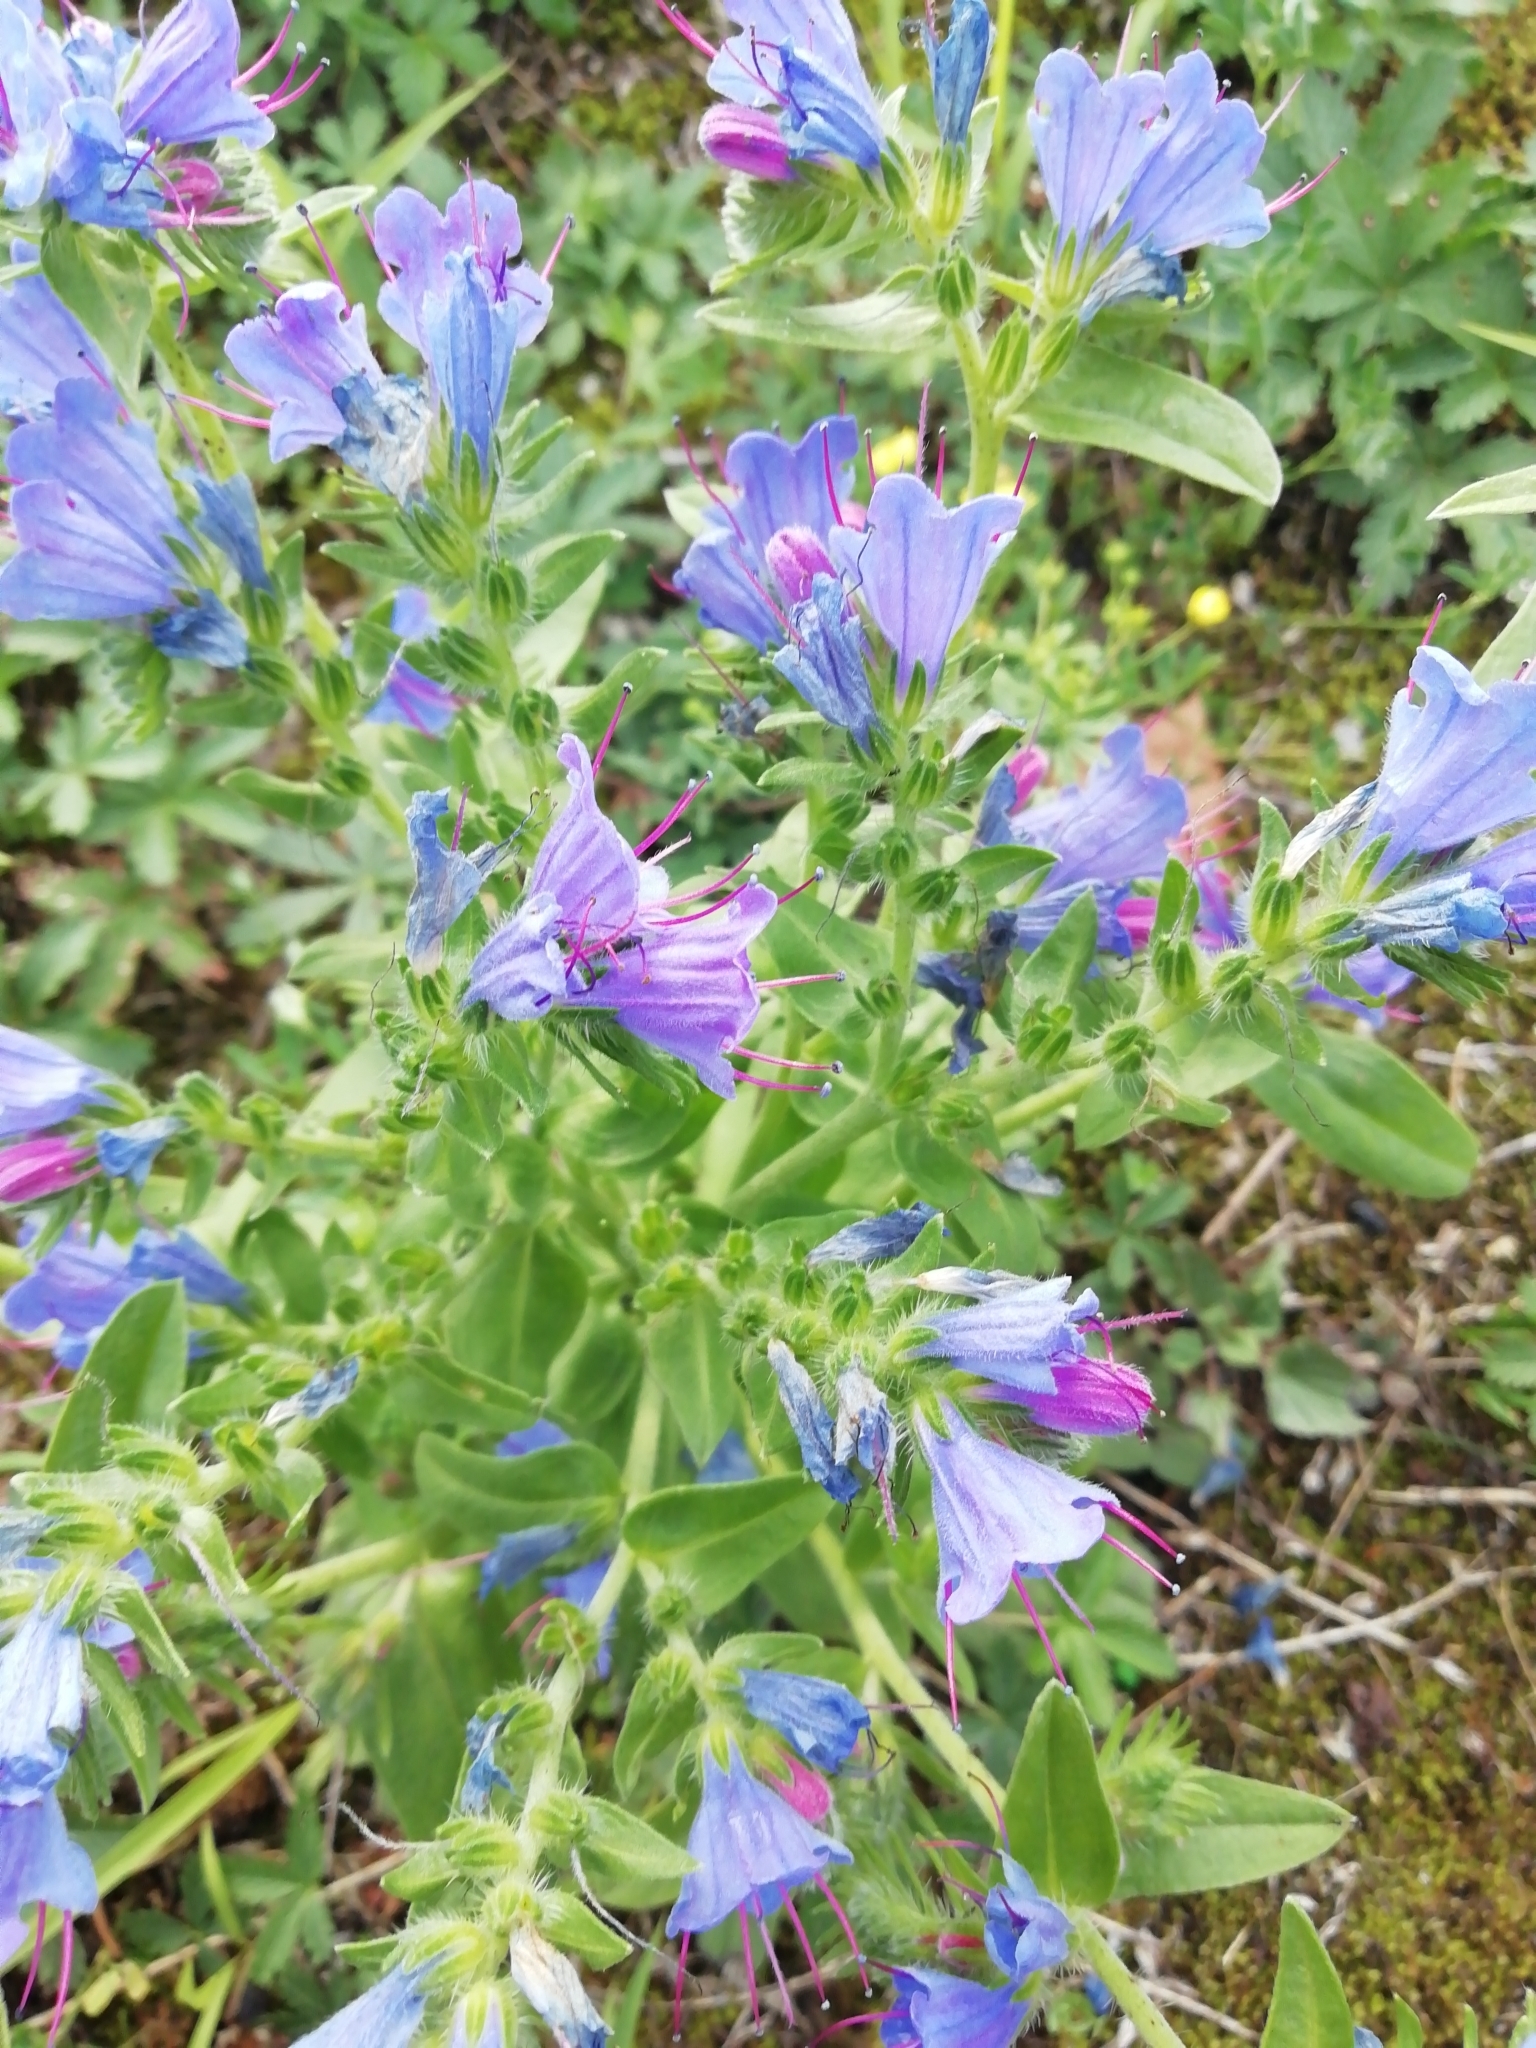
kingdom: Plantae
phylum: Tracheophyta
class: Magnoliopsida
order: Boraginales
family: Boraginaceae
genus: Echium
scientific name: Echium vulgare
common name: Common viper's bugloss
